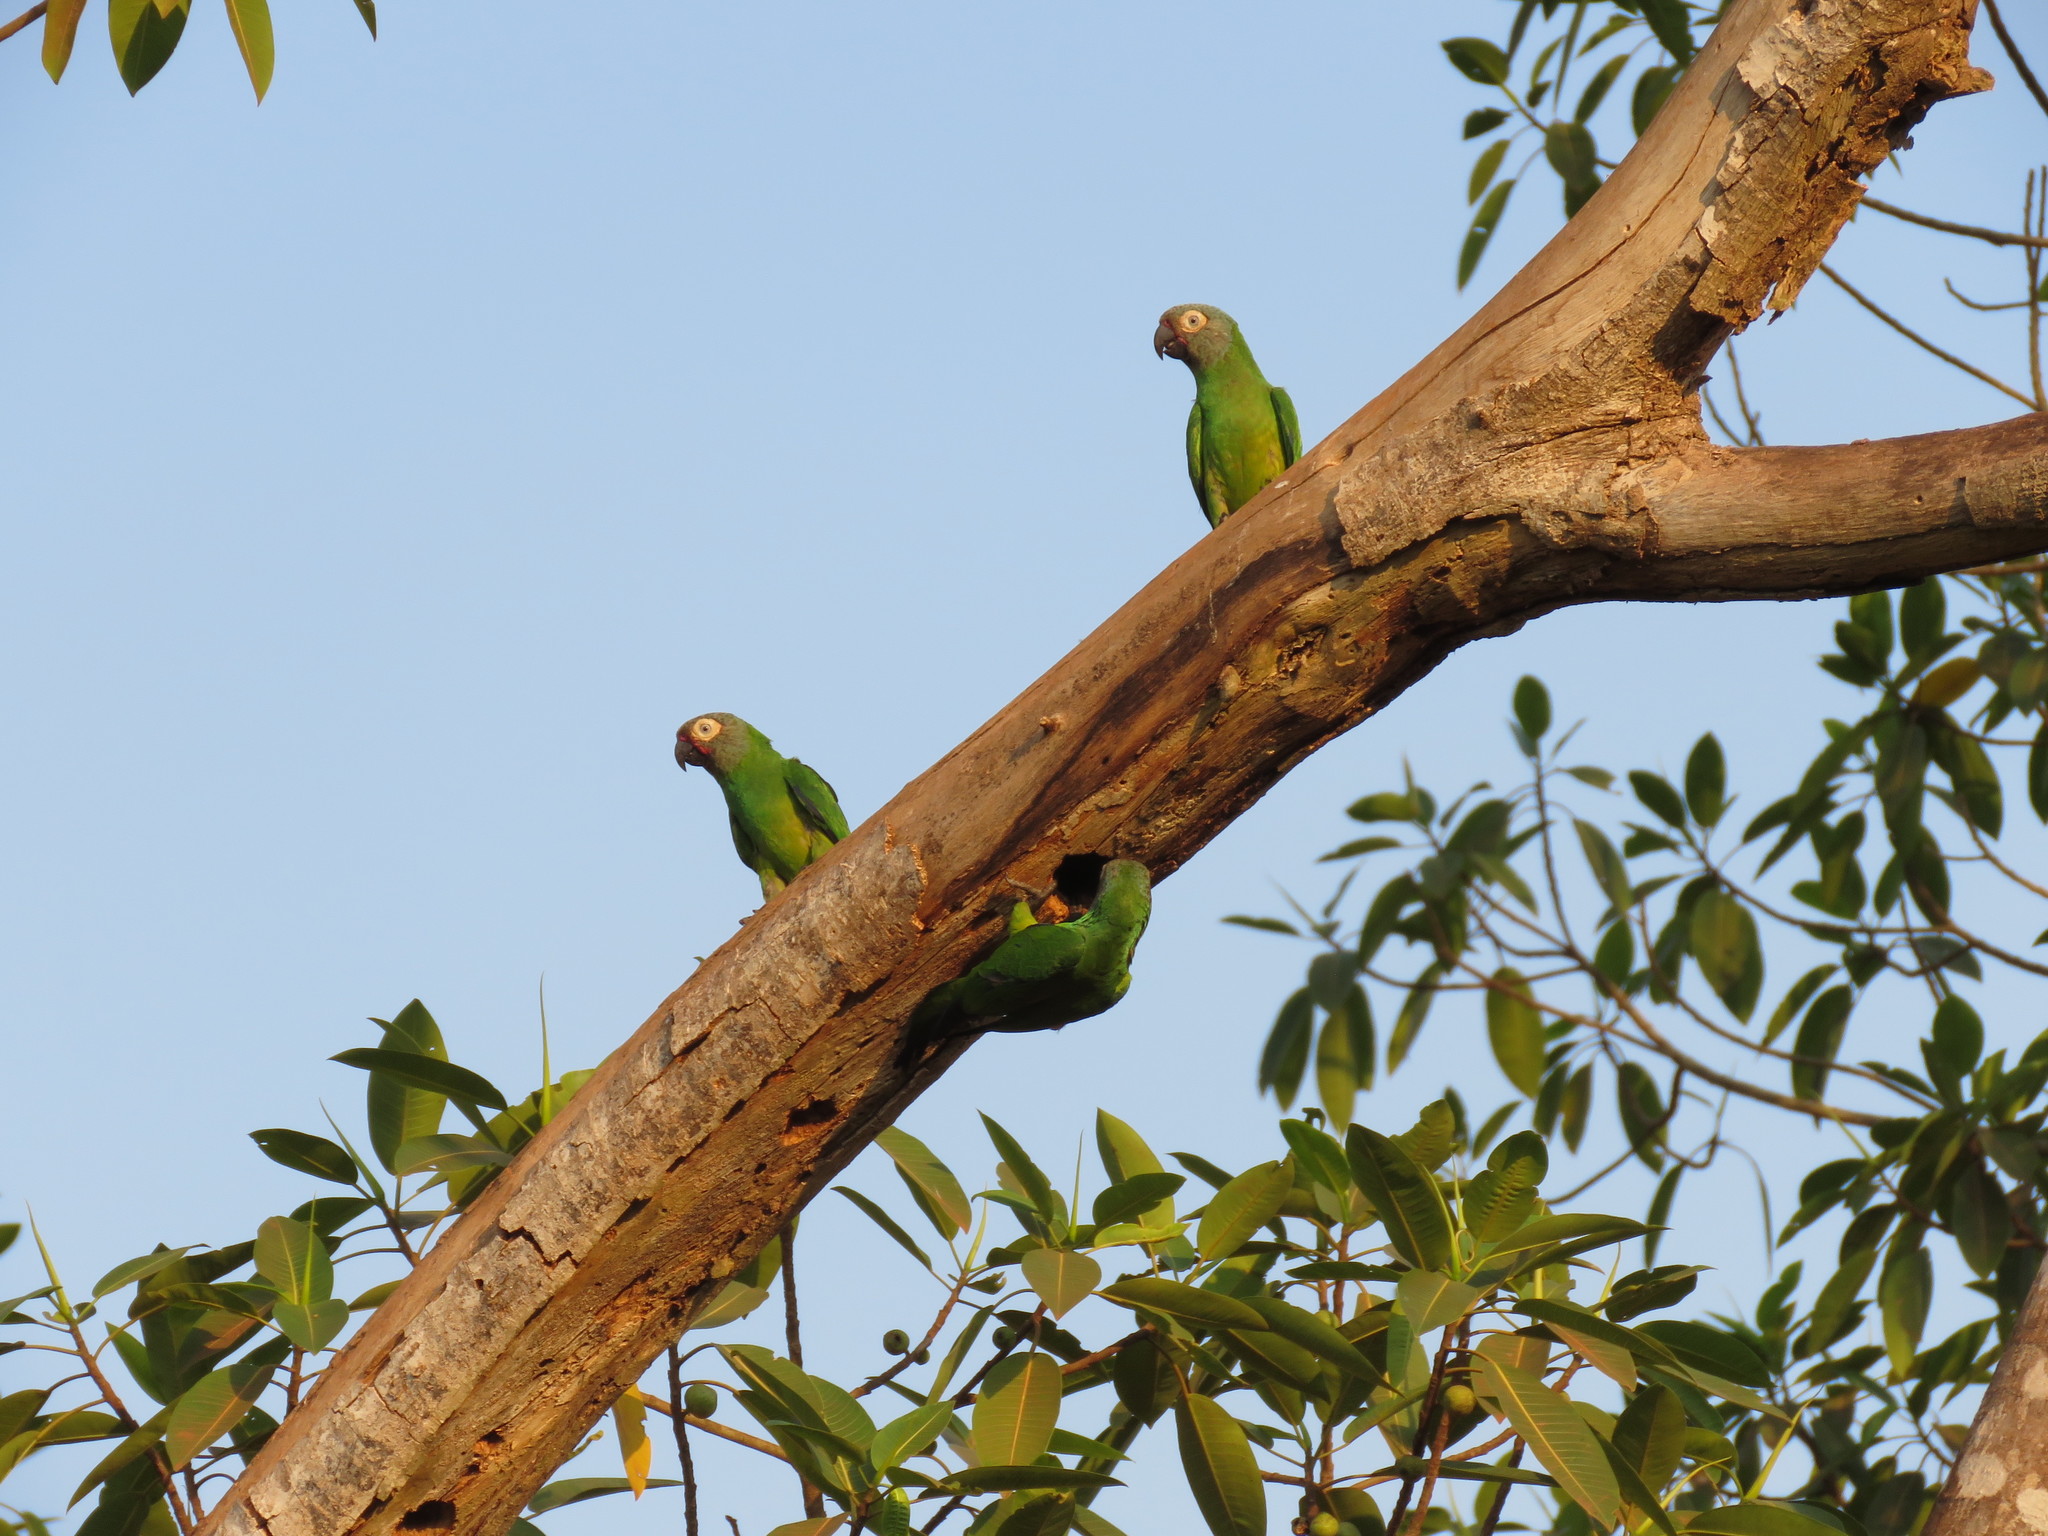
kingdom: Animalia
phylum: Chordata
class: Aves
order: Psittaciformes
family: Psittacidae
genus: Aratinga
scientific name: Aratinga weddellii
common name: Dusky-headed parakeet
